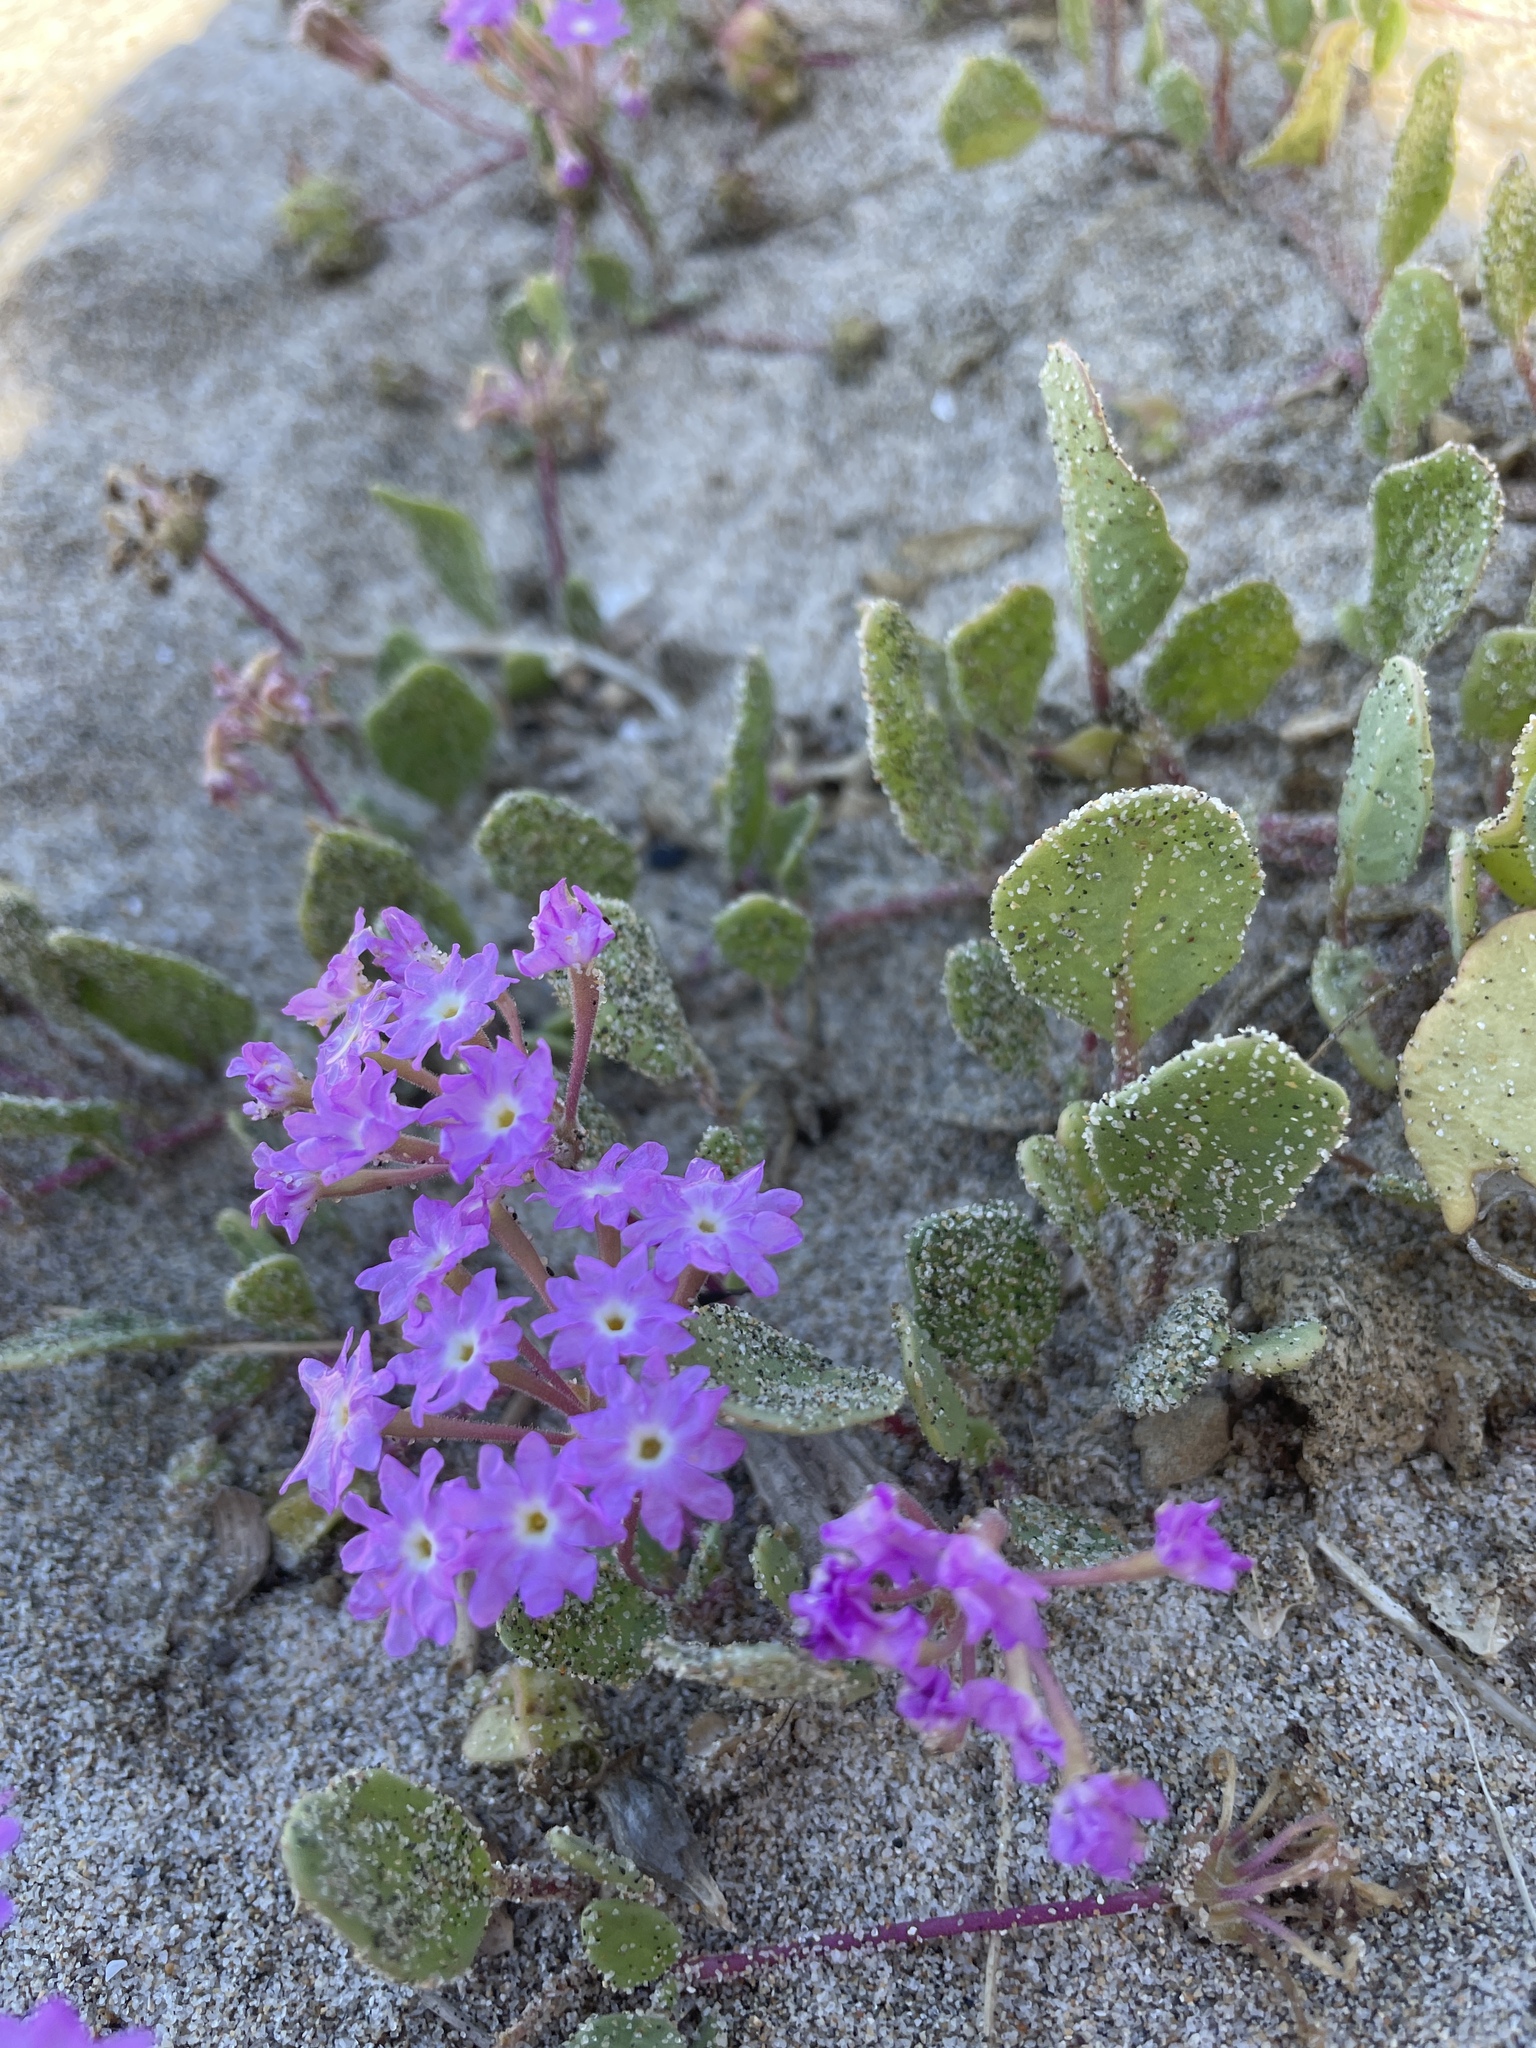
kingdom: Plantae
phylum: Tracheophyta
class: Magnoliopsida
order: Caryophyllales
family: Nyctaginaceae
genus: Abronia
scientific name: Abronia umbellata
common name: Sand-verbena
